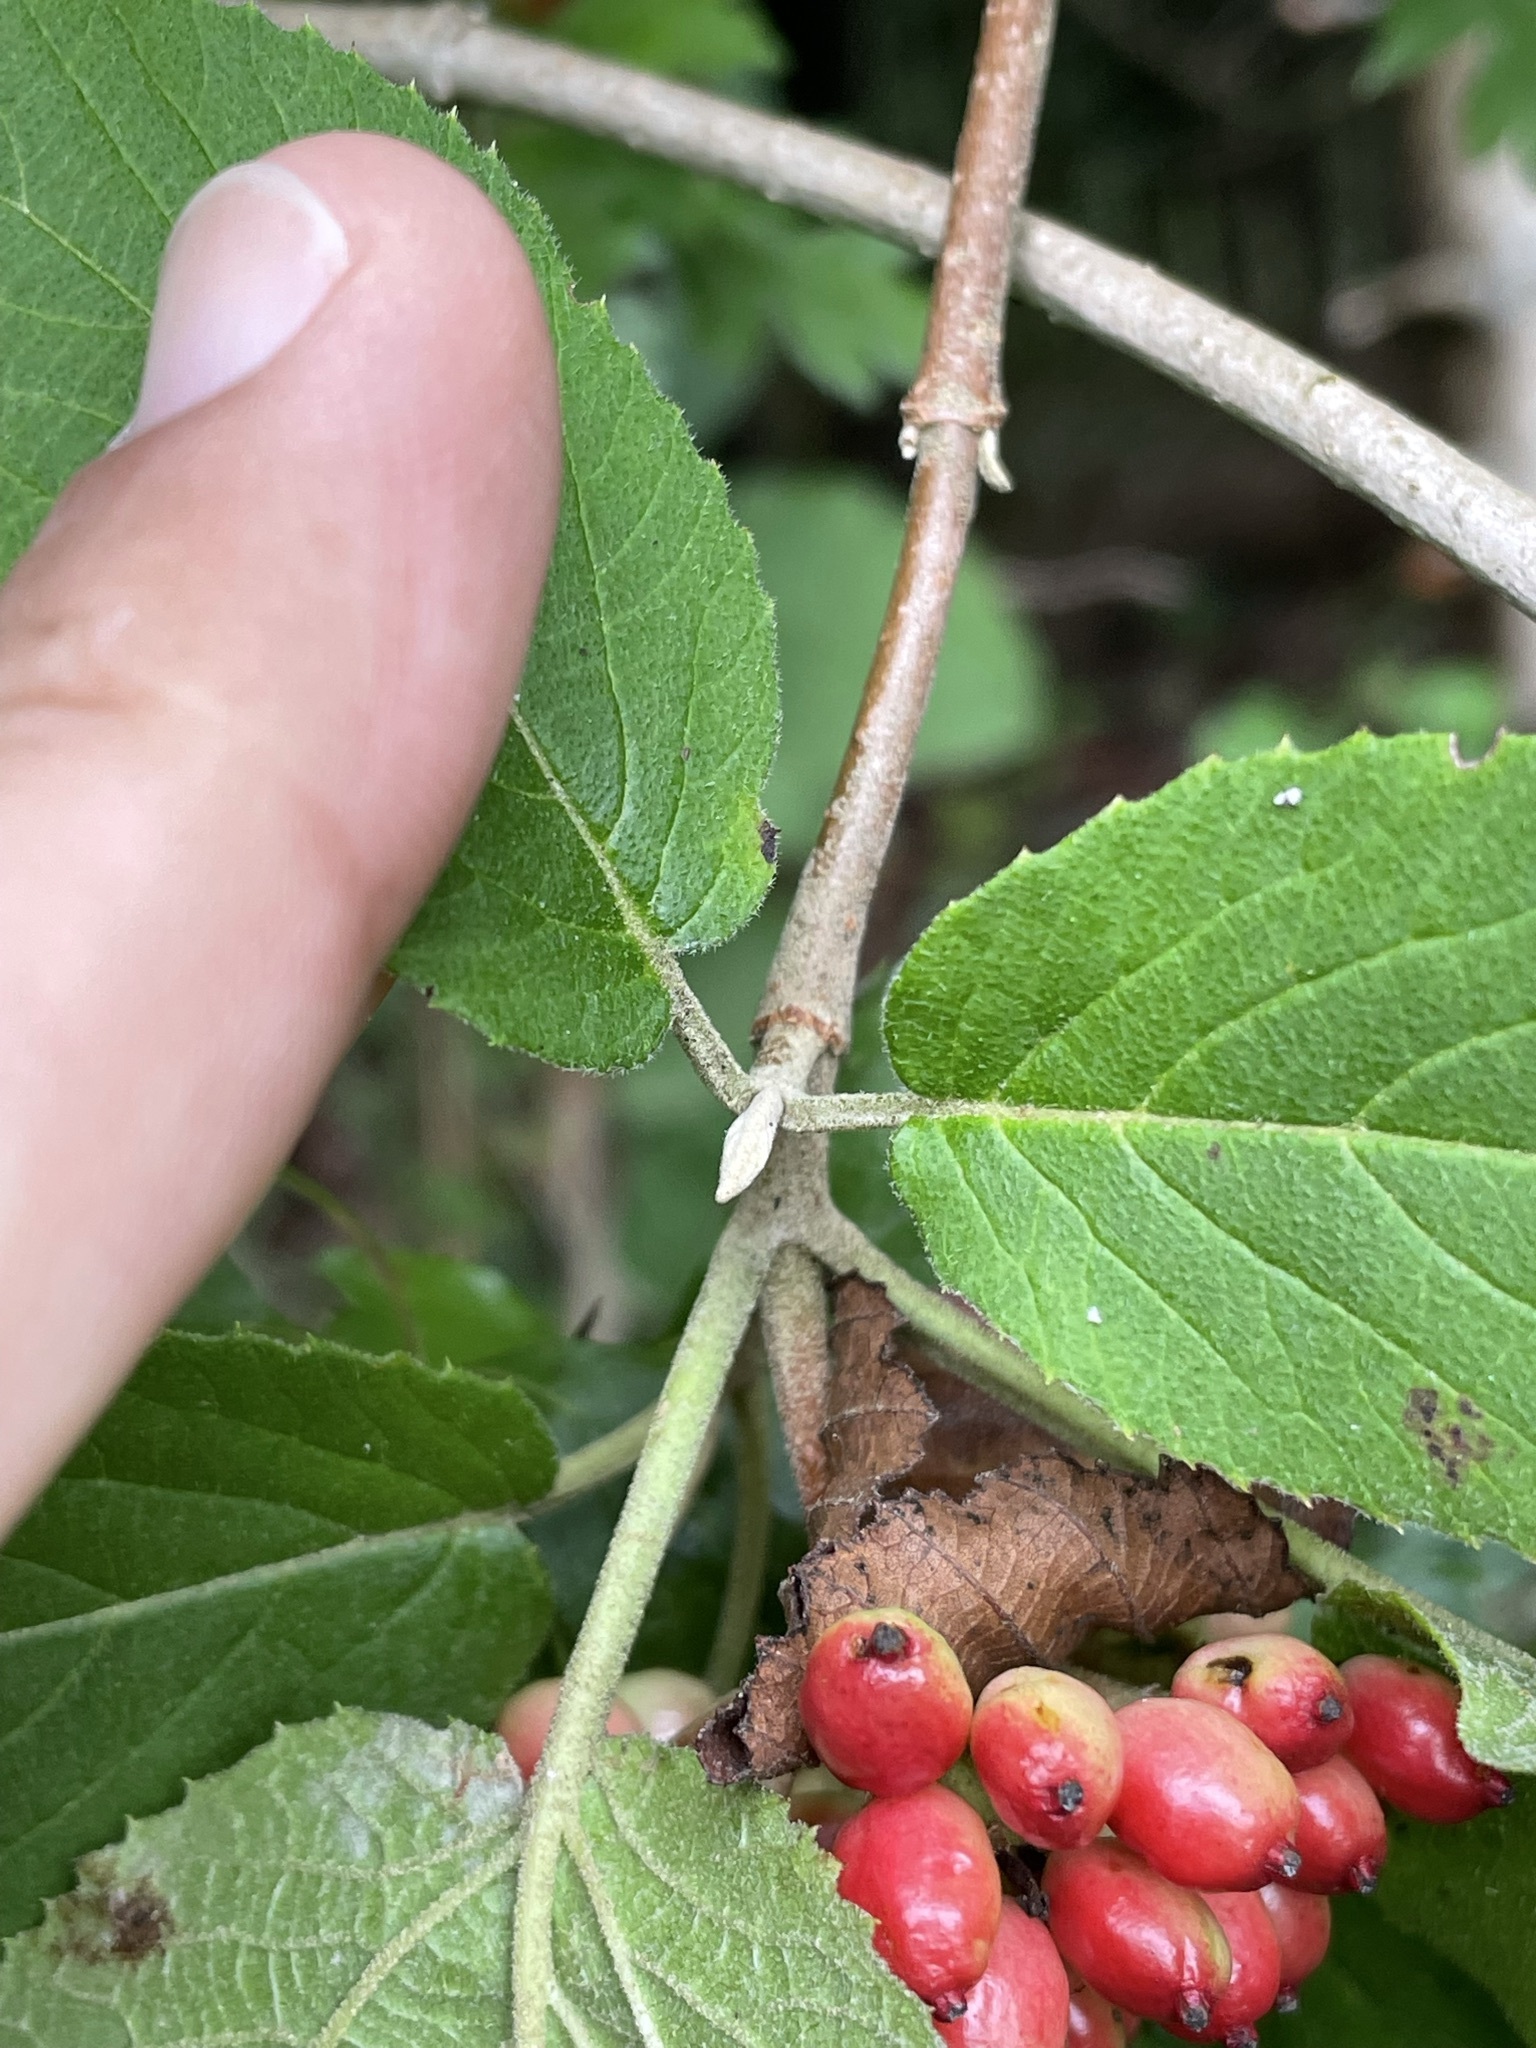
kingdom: Plantae
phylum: Tracheophyta
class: Magnoliopsida
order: Dipsacales
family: Viburnaceae
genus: Viburnum
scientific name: Viburnum lantana
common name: Wayfaring tree
